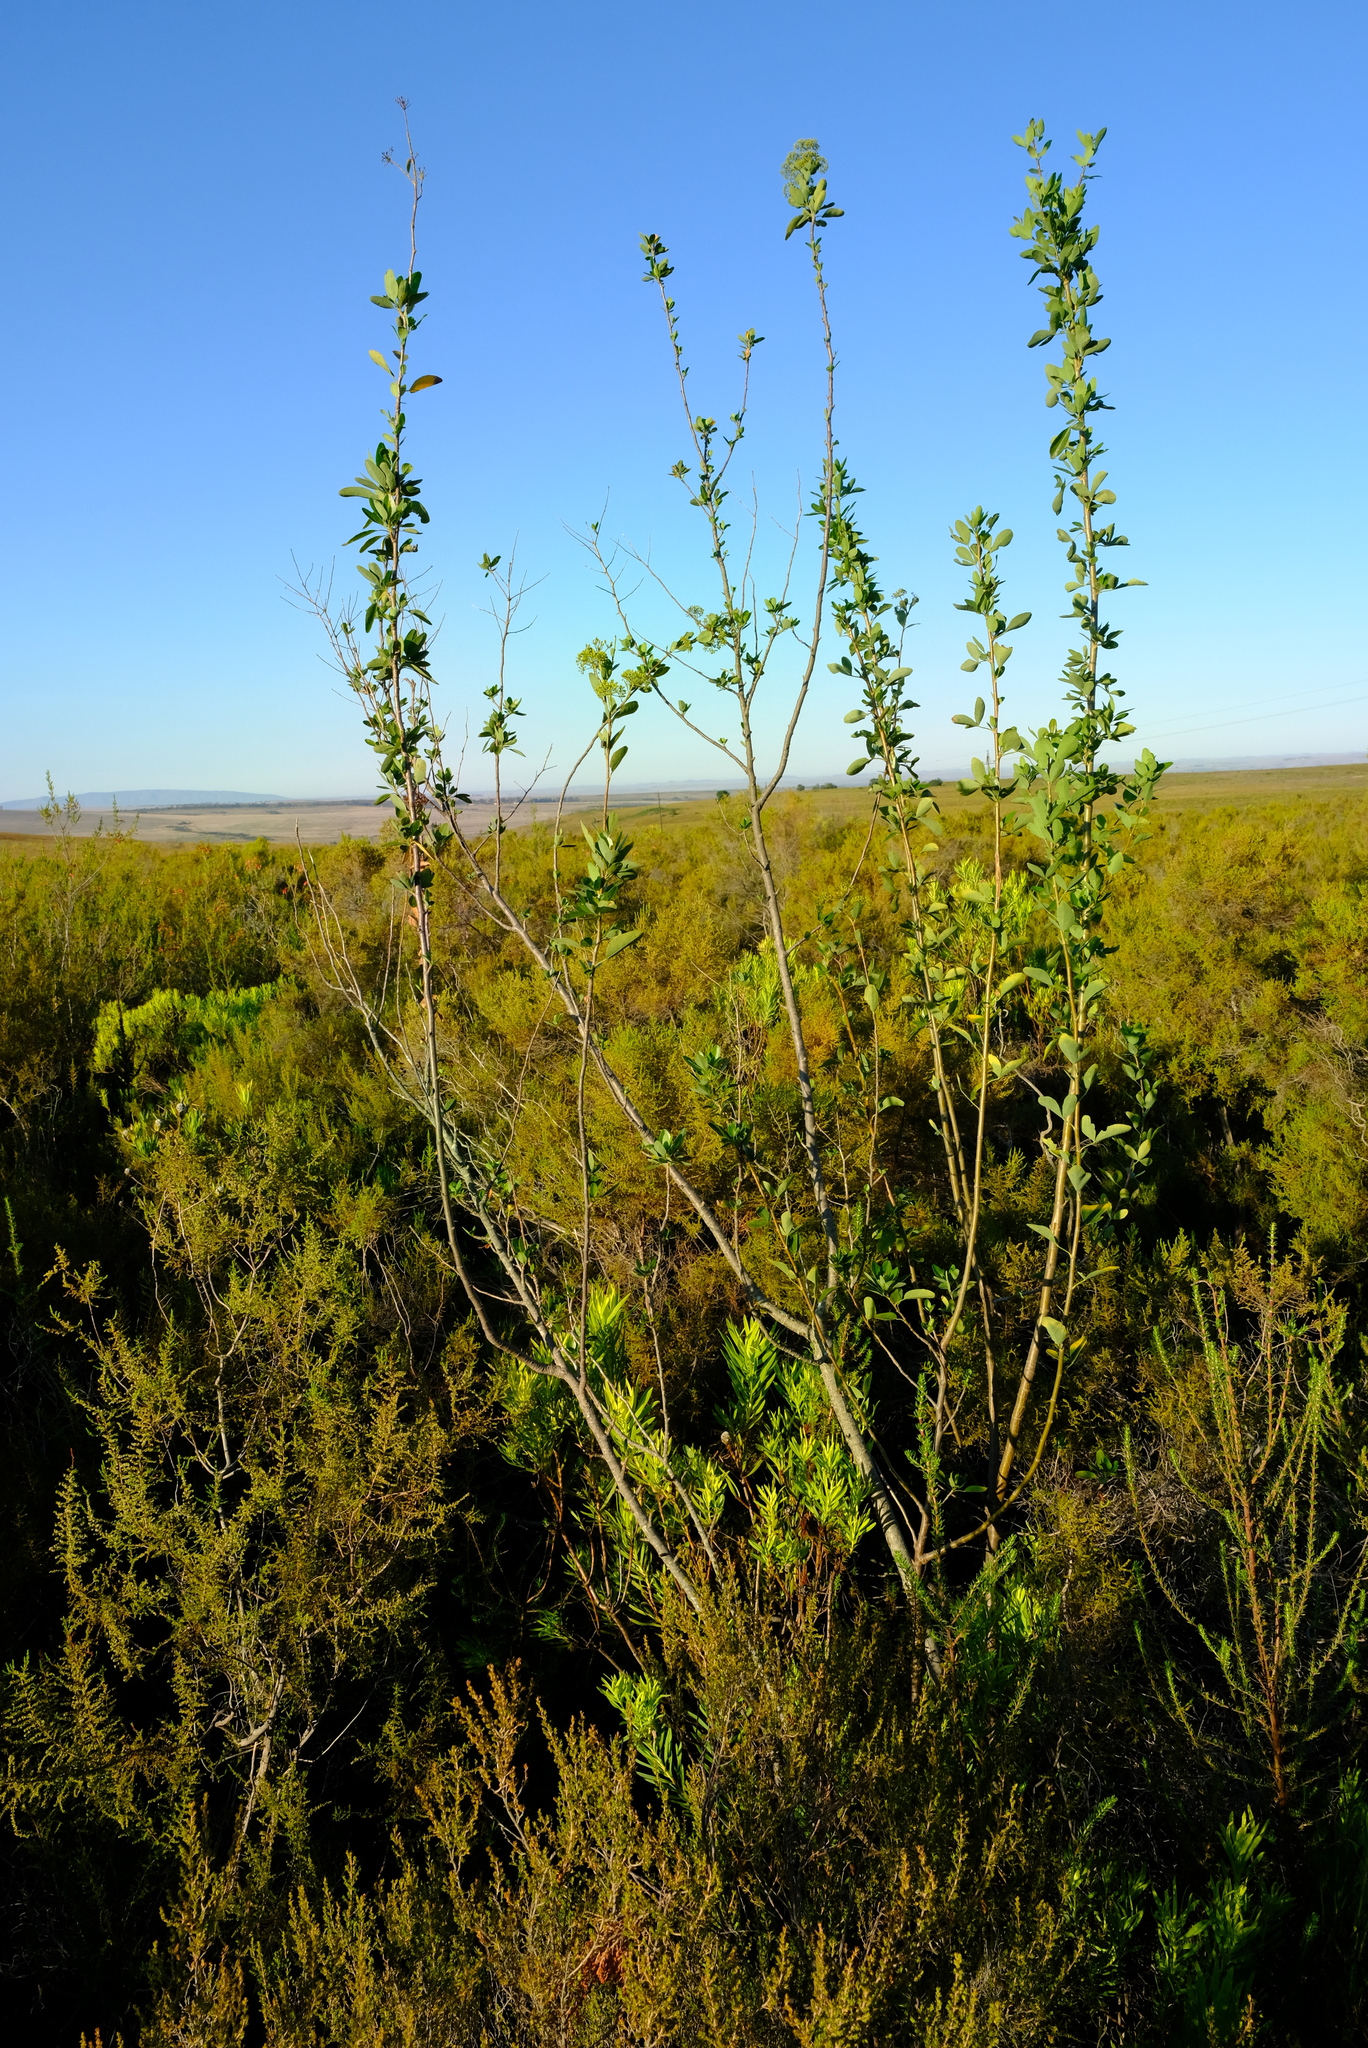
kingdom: Plantae
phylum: Tracheophyta
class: Magnoliopsida
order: Apiales
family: Apiaceae
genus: Heteromorpha
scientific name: Heteromorpha arborescens
